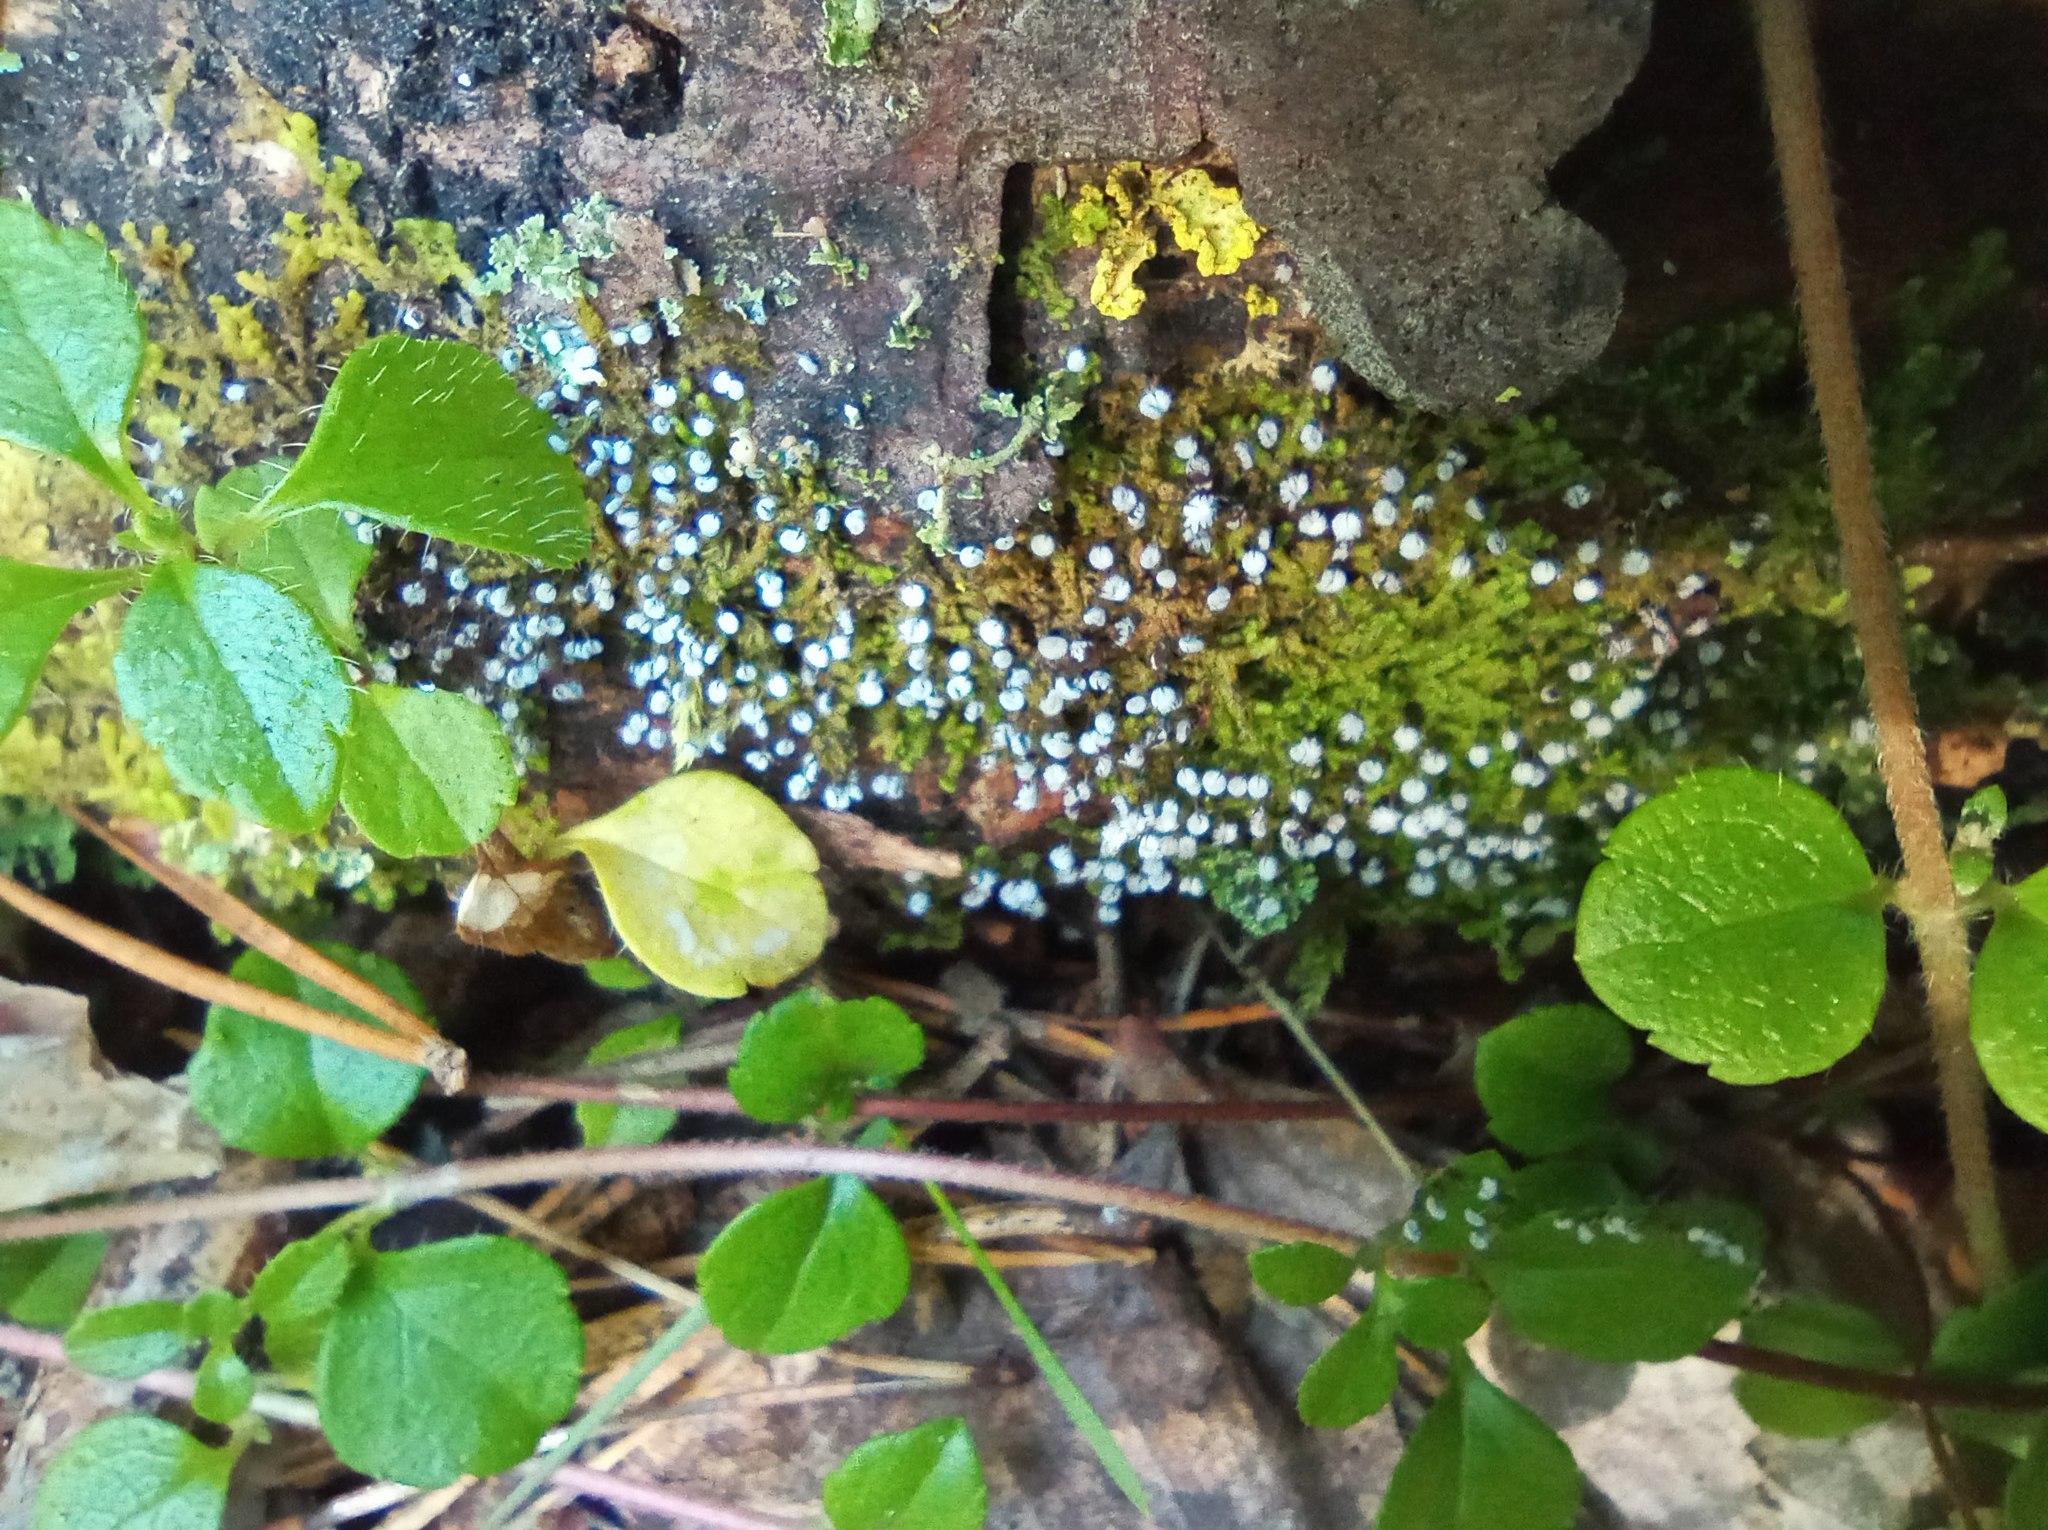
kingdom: Protozoa
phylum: Mycetozoa
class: Myxomycetes
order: Physarales
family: Physaraceae
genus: Physarum
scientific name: Physarum album
